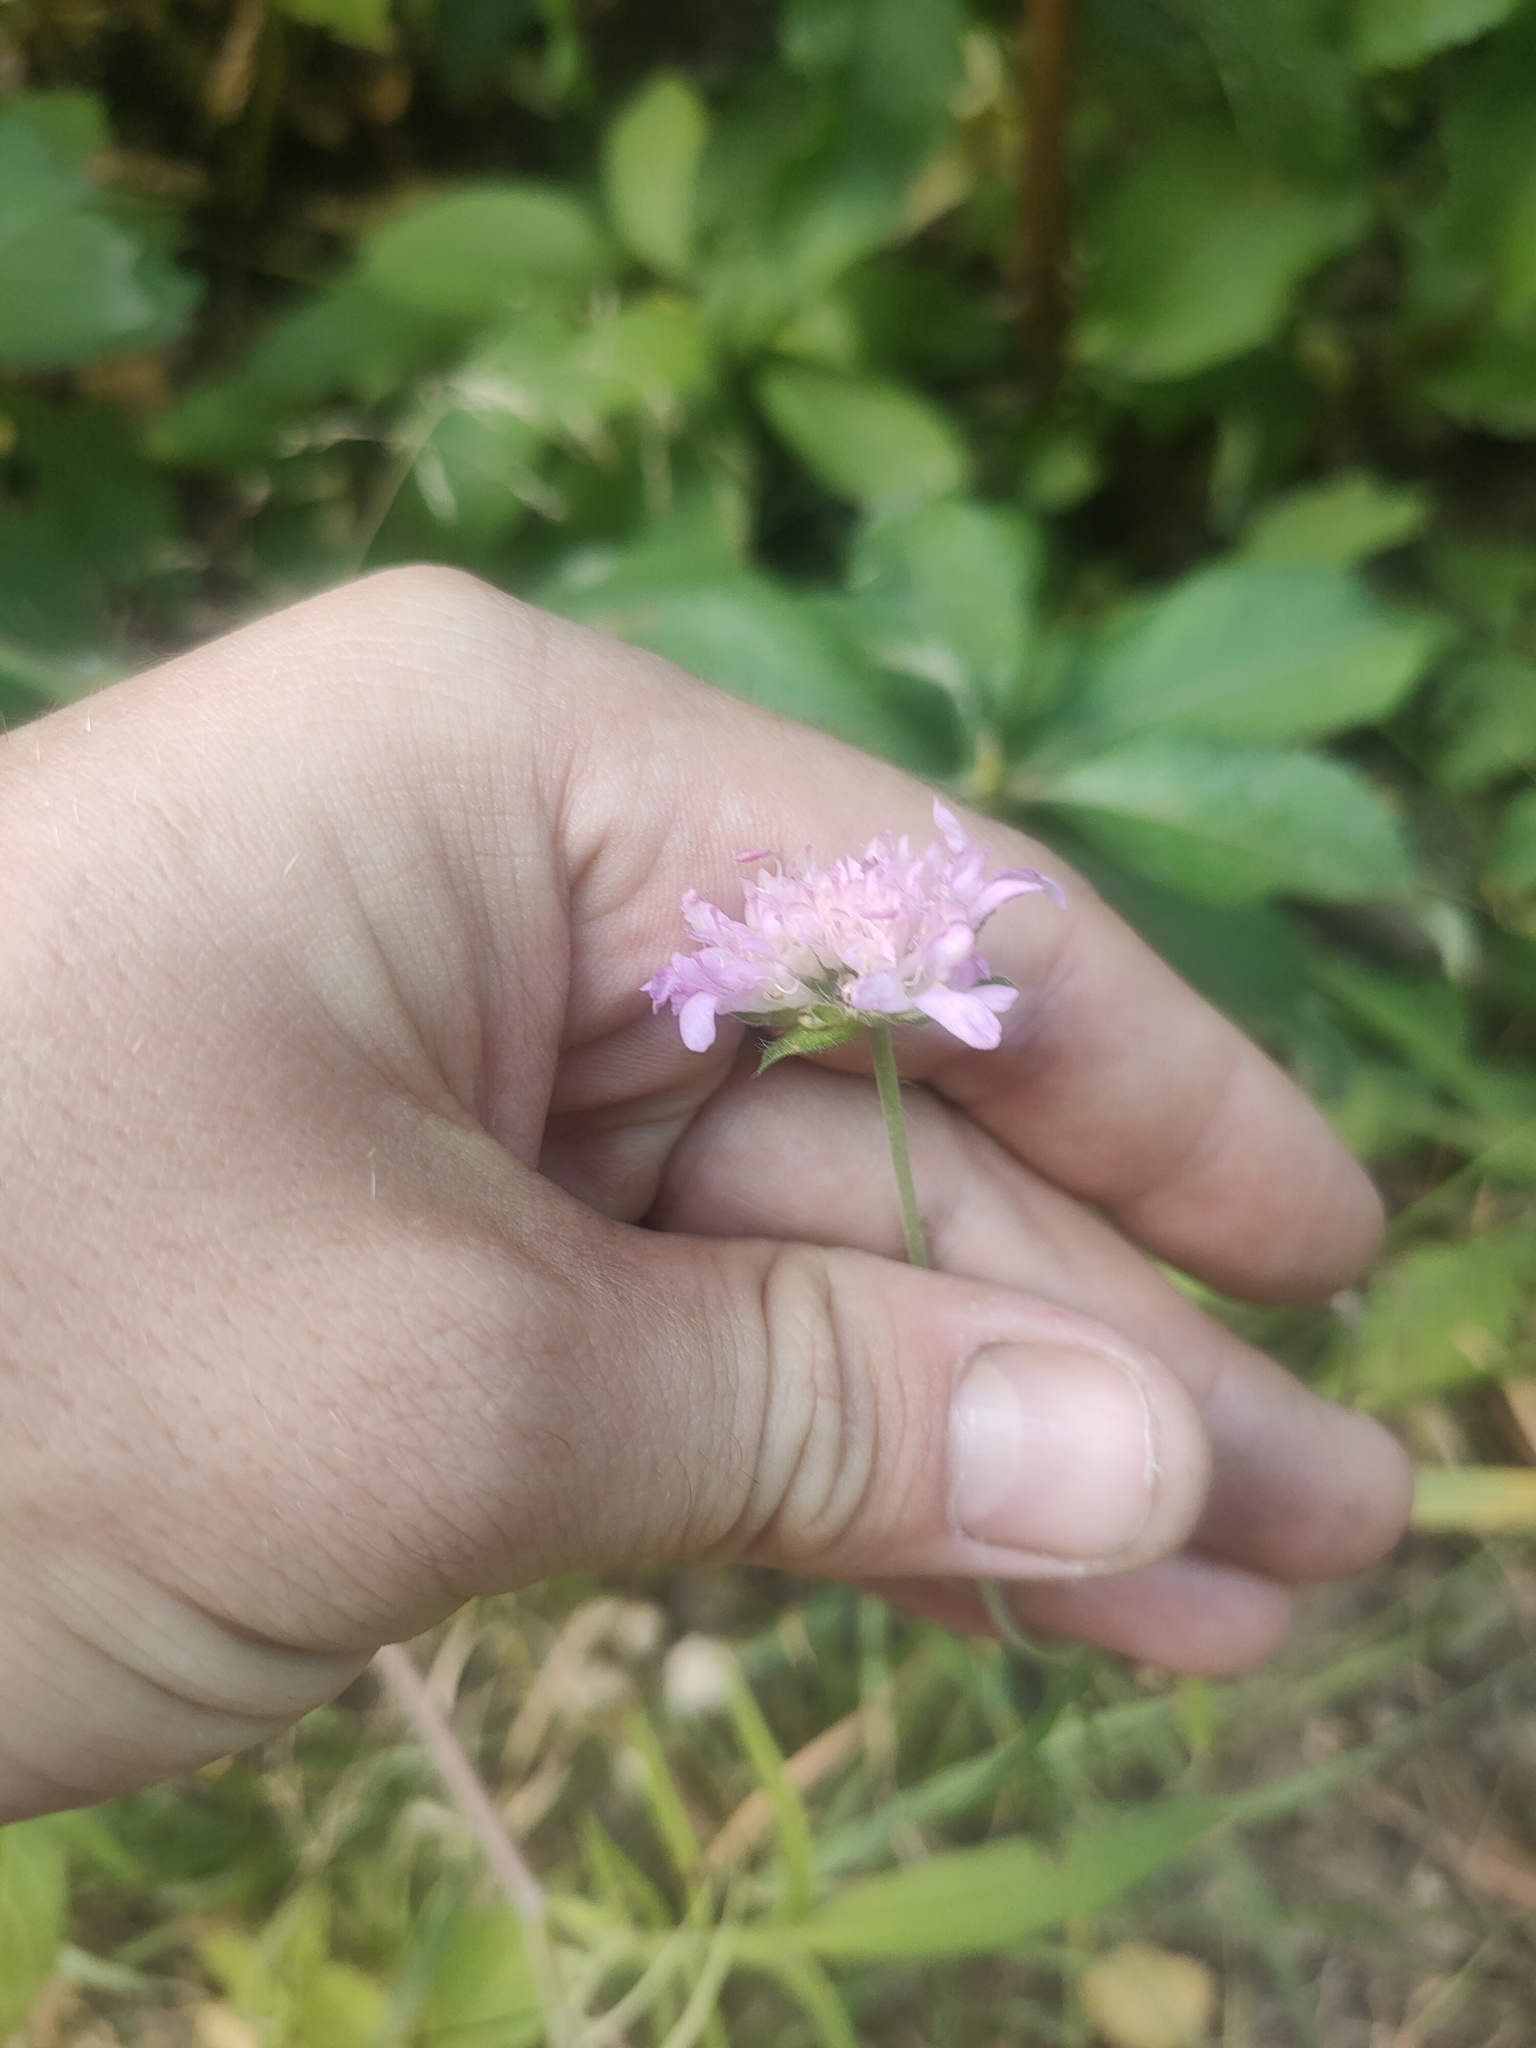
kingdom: Plantae
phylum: Tracheophyta
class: Magnoliopsida
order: Dipsacales
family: Caprifoliaceae
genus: Knautia
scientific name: Knautia arvensis
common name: Field scabiosa
